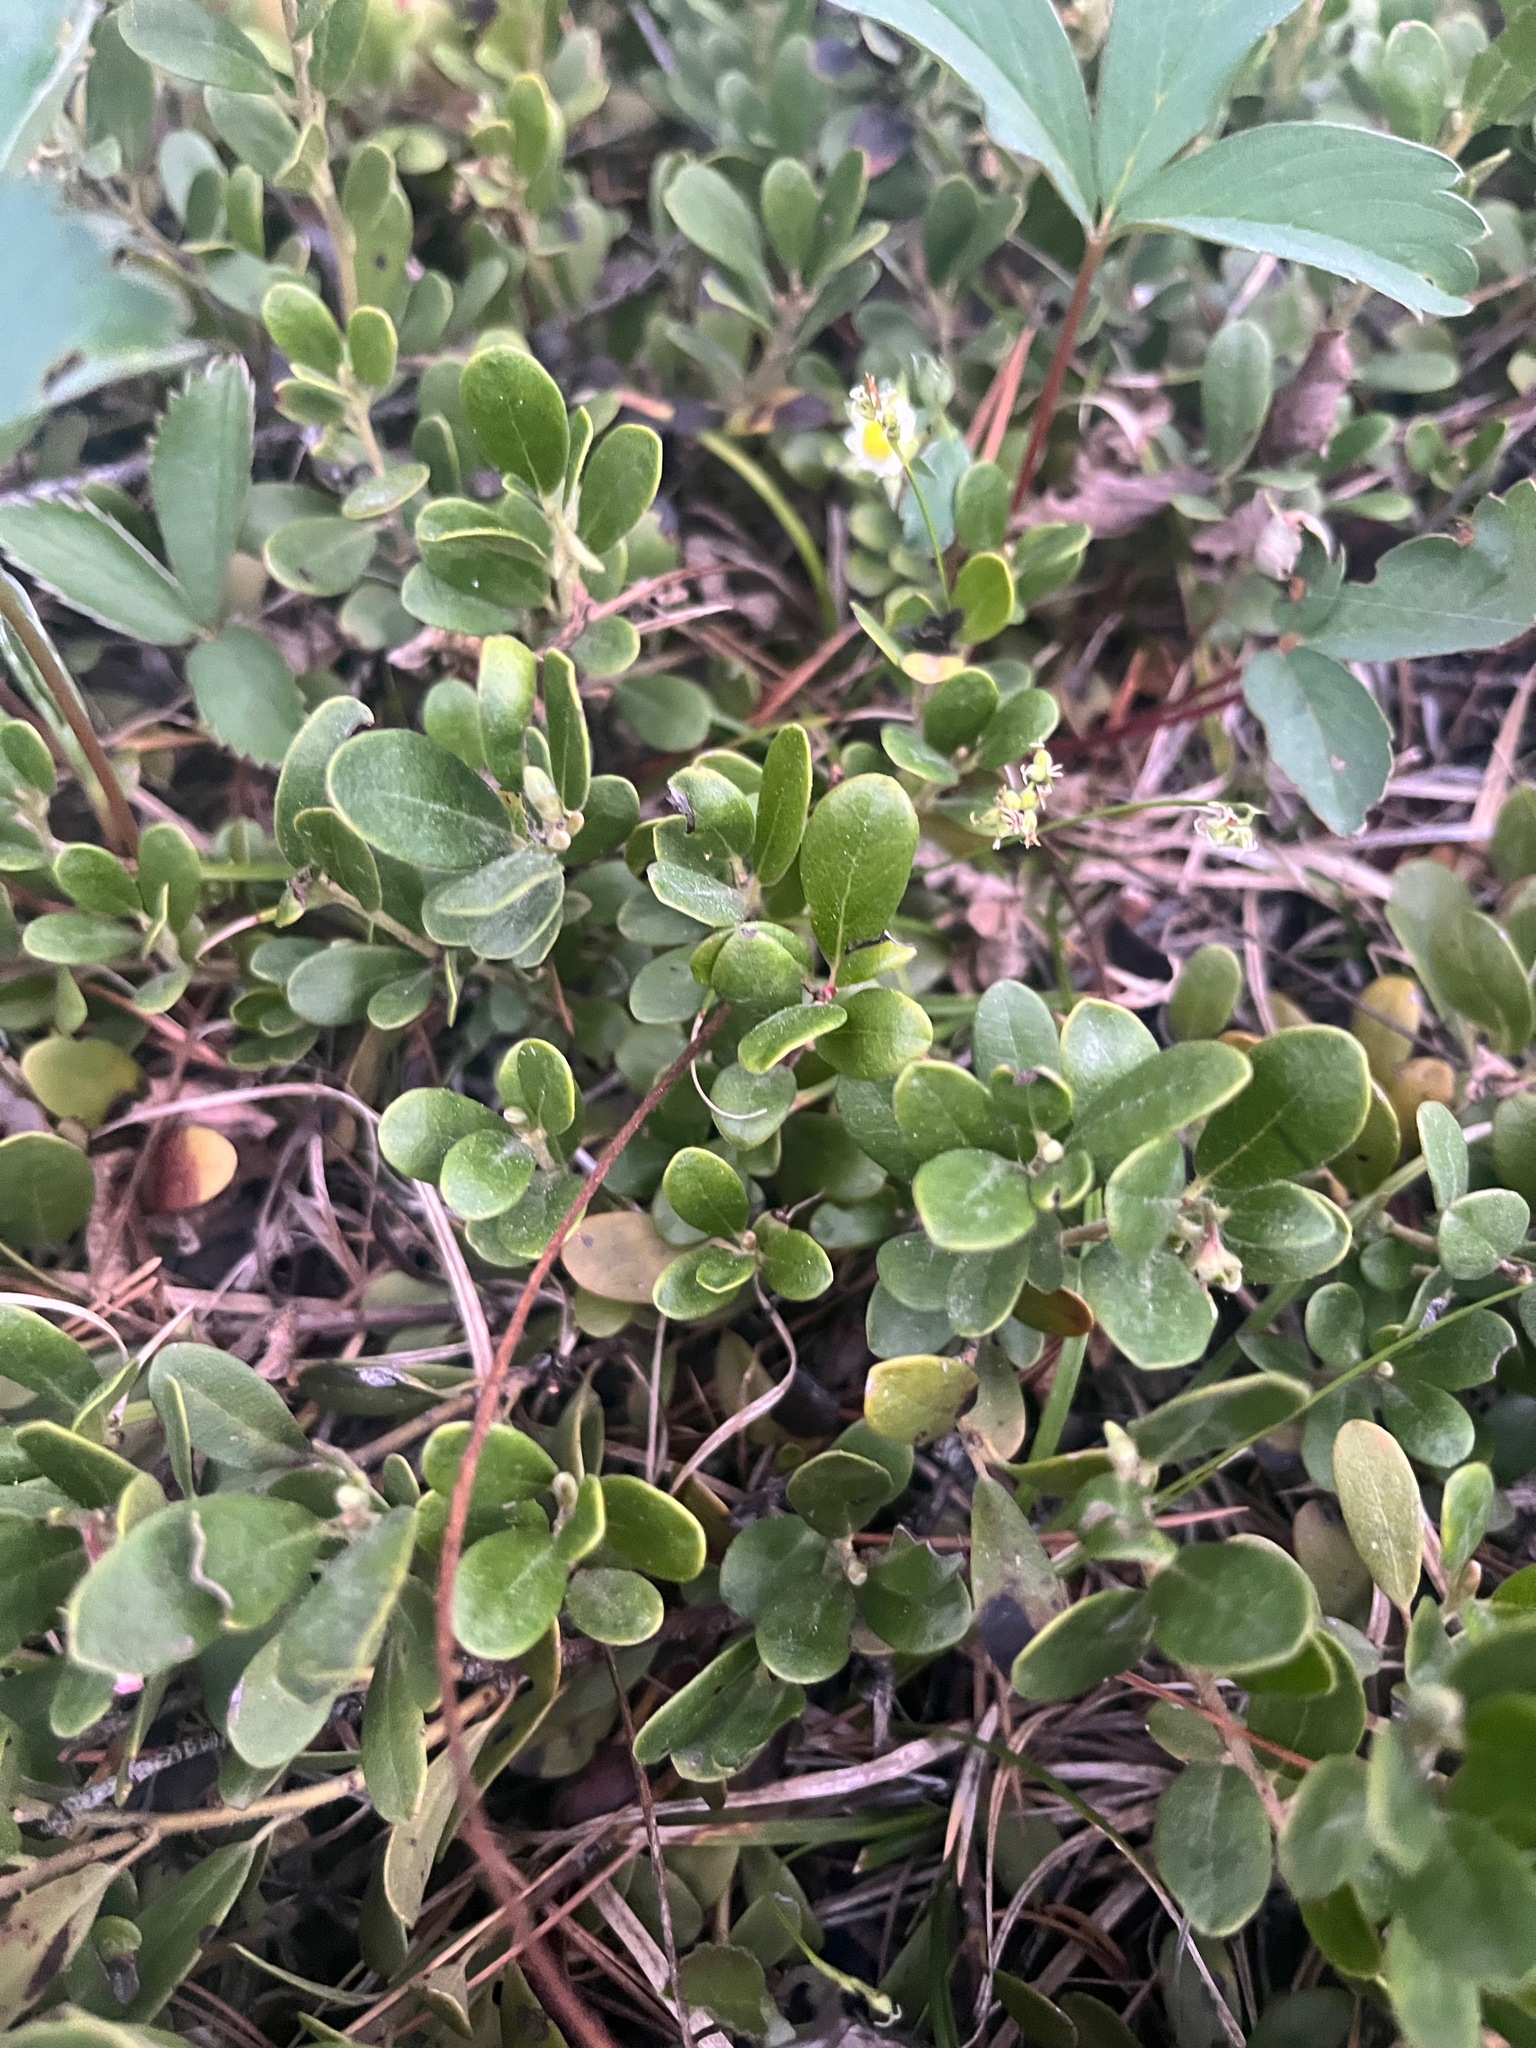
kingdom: Plantae
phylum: Tracheophyta
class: Magnoliopsida
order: Ericales
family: Ericaceae
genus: Arctostaphylos
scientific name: Arctostaphylos uva-ursi
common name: Bearberry
